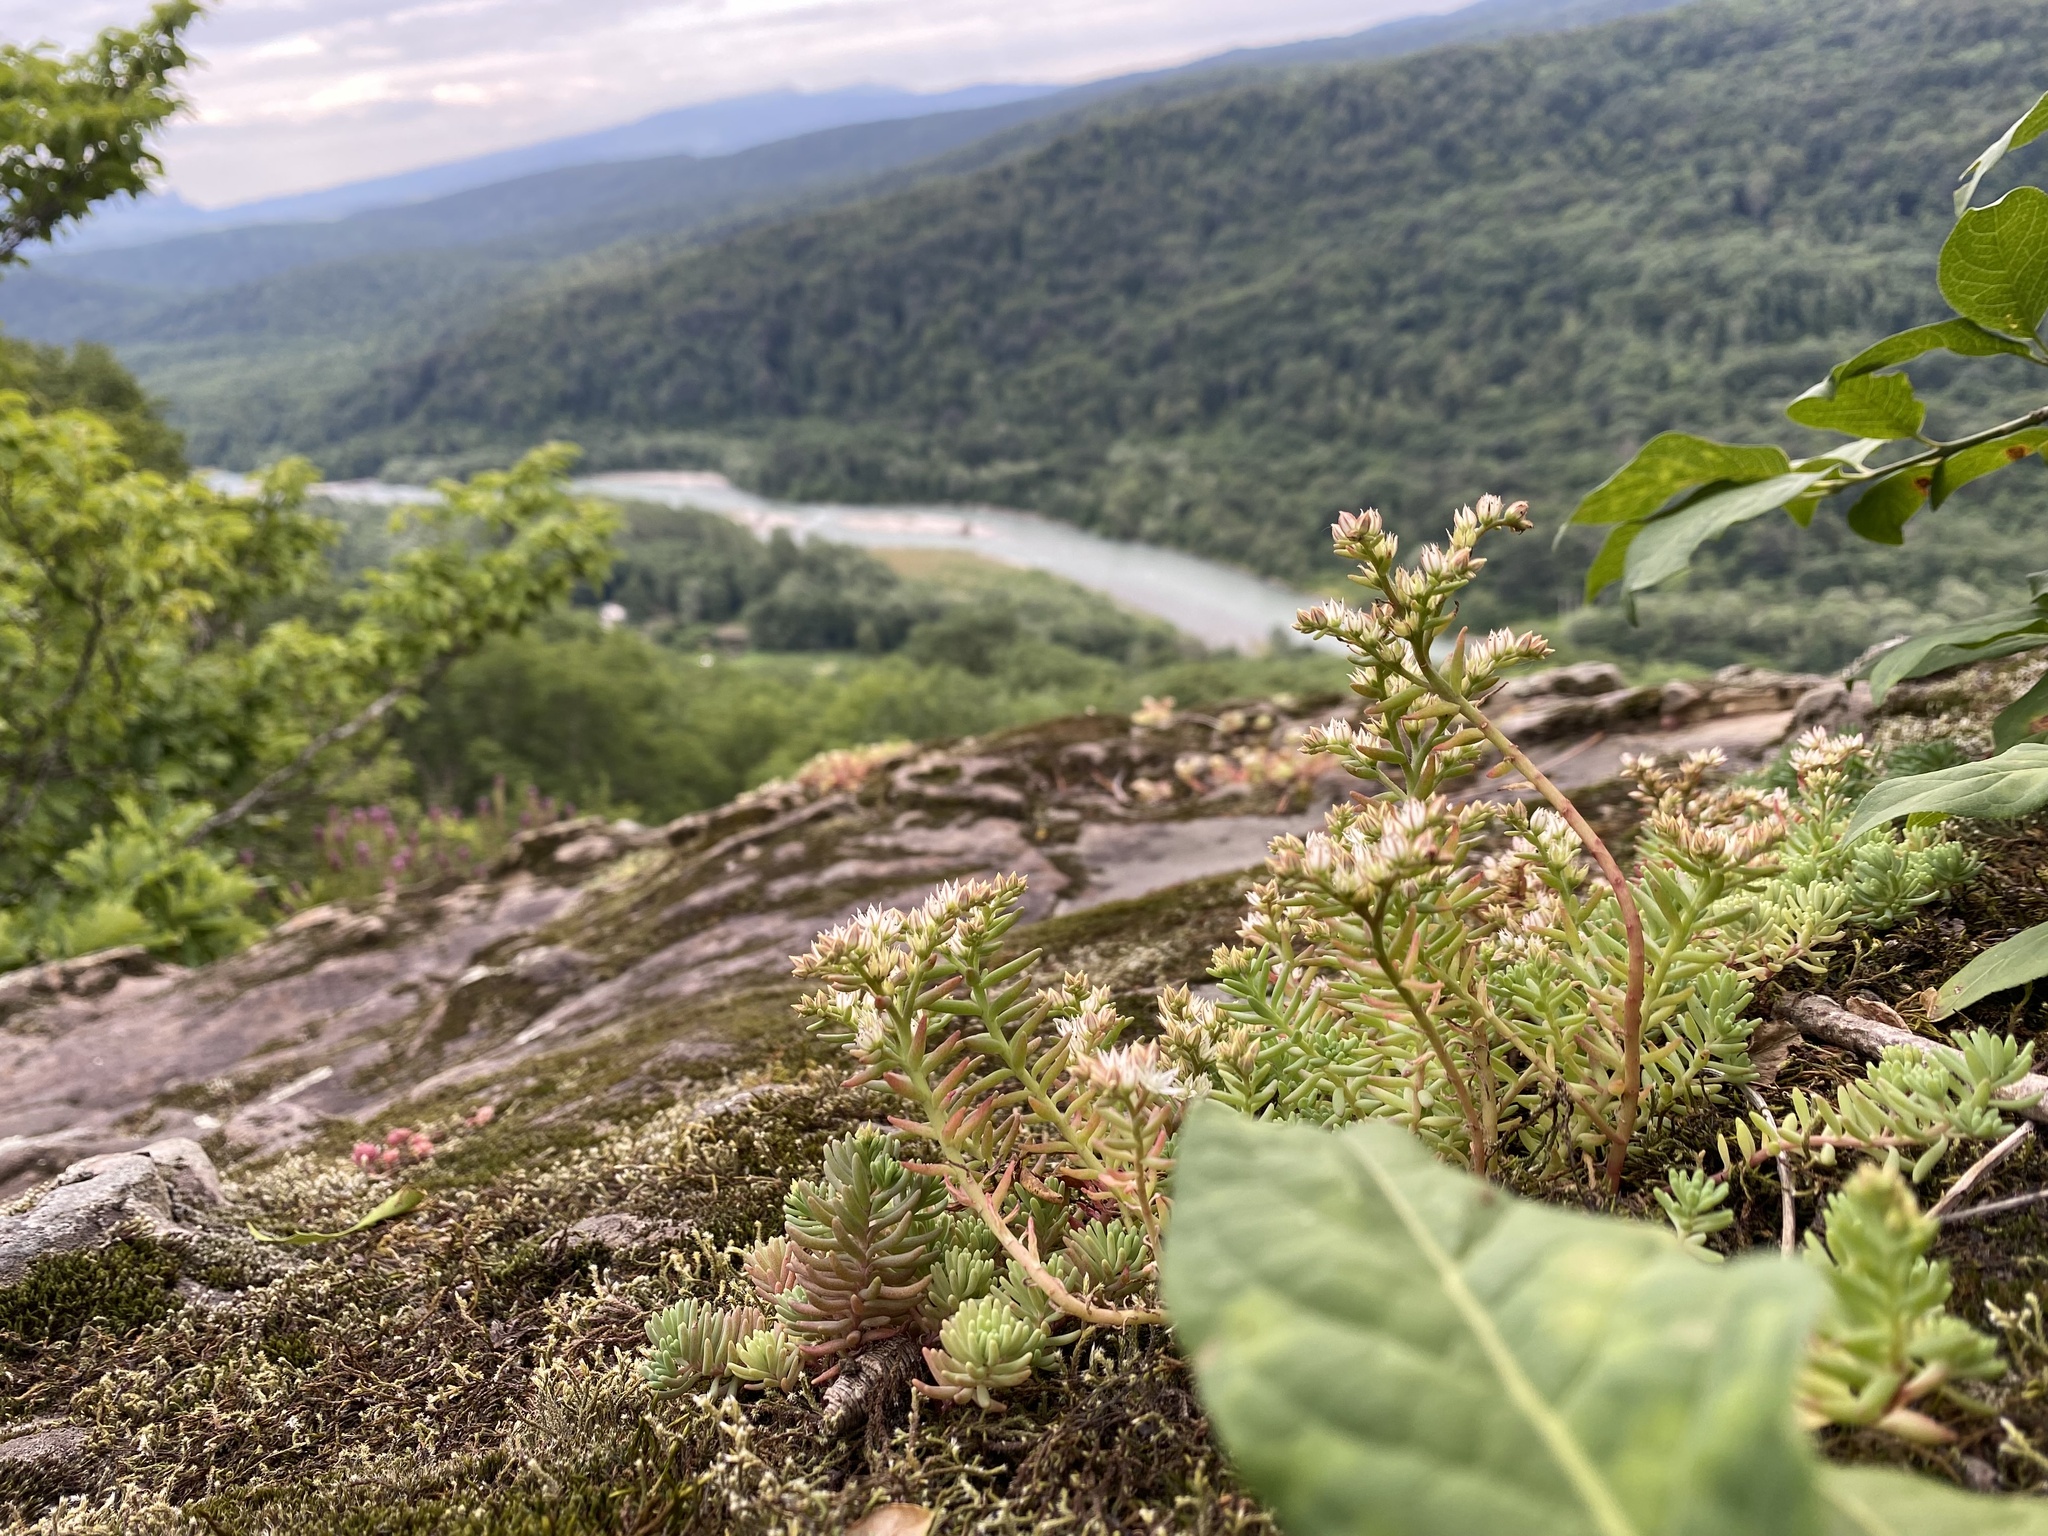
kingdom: Plantae
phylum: Tracheophyta
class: Magnoliopsida
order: Saxifragales
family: Crassulaceae
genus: Sedum
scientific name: Sedum pallidum
